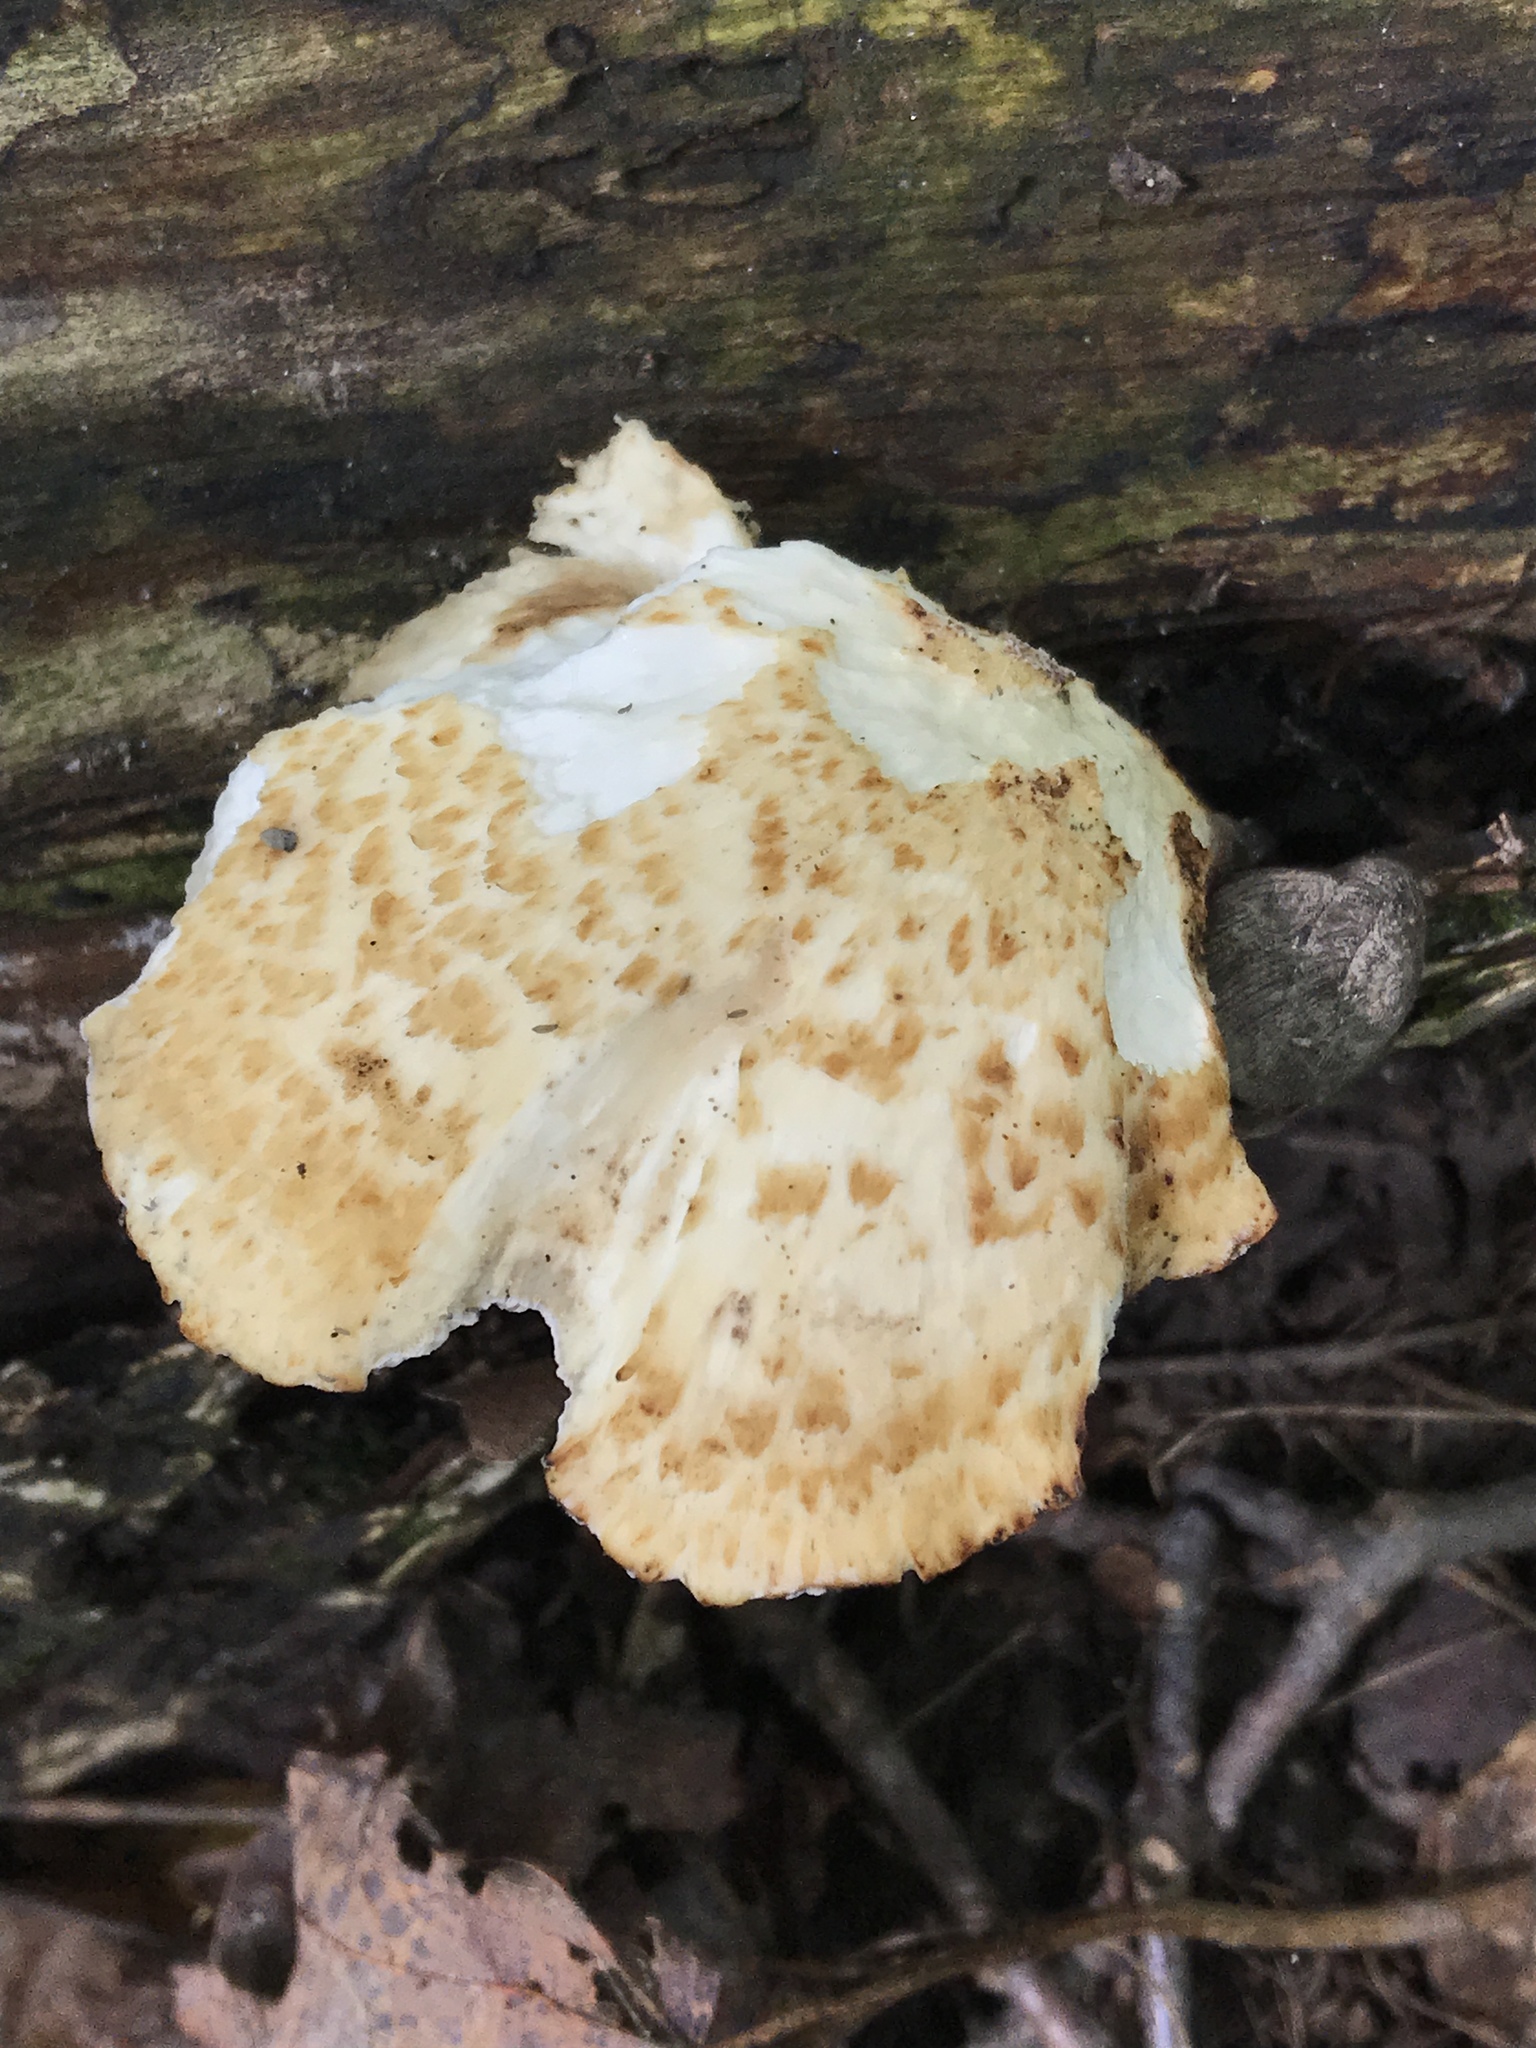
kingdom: Fungi
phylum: Basidiomycota
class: Agaricomycetes
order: Polyporales
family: Polyporaceae
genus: Cerioporus
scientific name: Cerioporus squamosus
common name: Dryad's saddle
